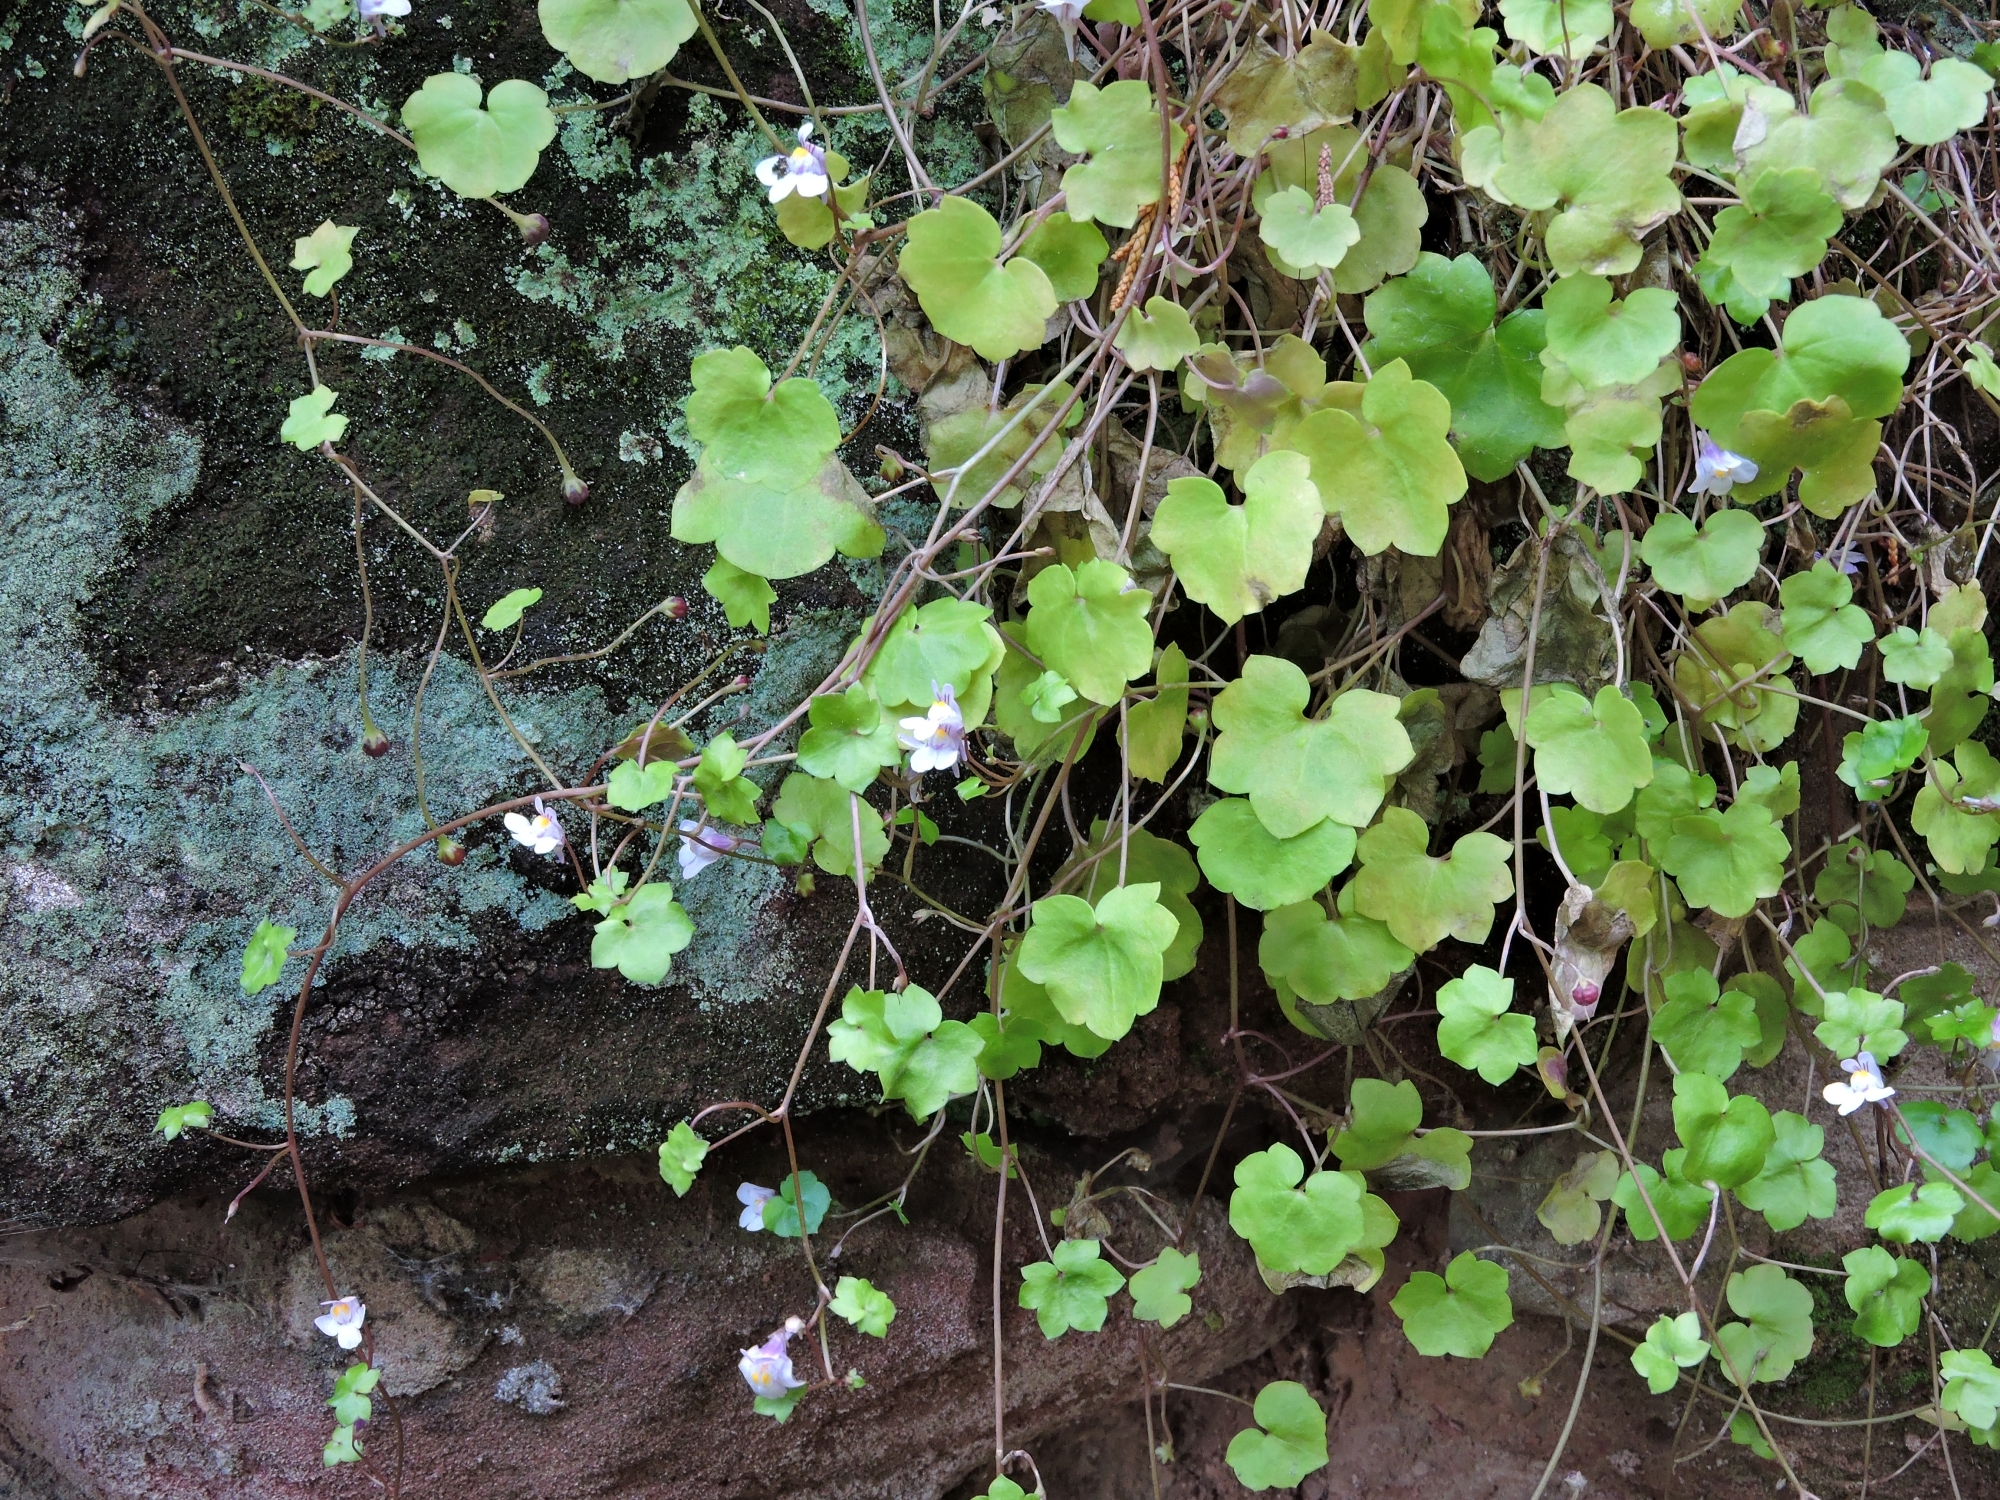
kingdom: Plantae
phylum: Tracheophyta
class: Magnoliopsida
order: Lamiales
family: Plantaginaceae
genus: Cymbalaria
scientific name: Cymbalaria muralis
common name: Ivy-leaved toadflax
